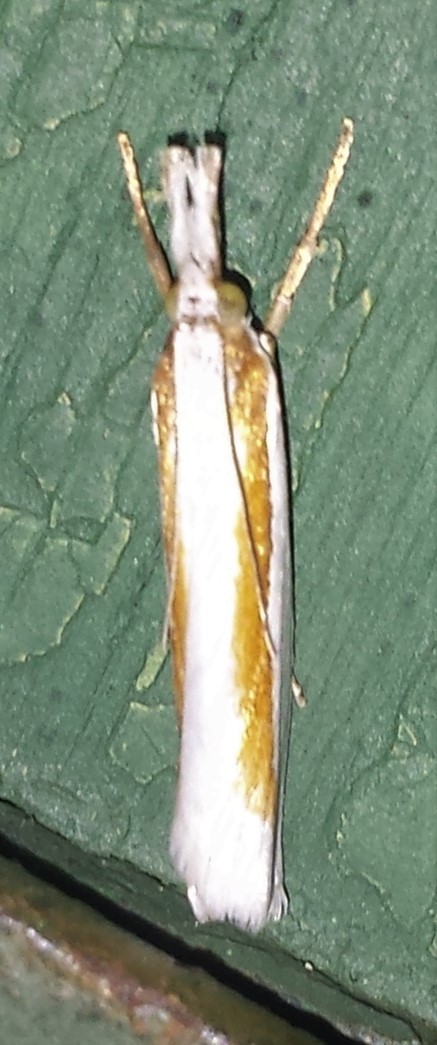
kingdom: Animalia
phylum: Arthropoda
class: Insecta
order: Lepidoptera
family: Crambidae
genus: Crambus
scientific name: Crambus girardellus
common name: Girard's grass-veneer
